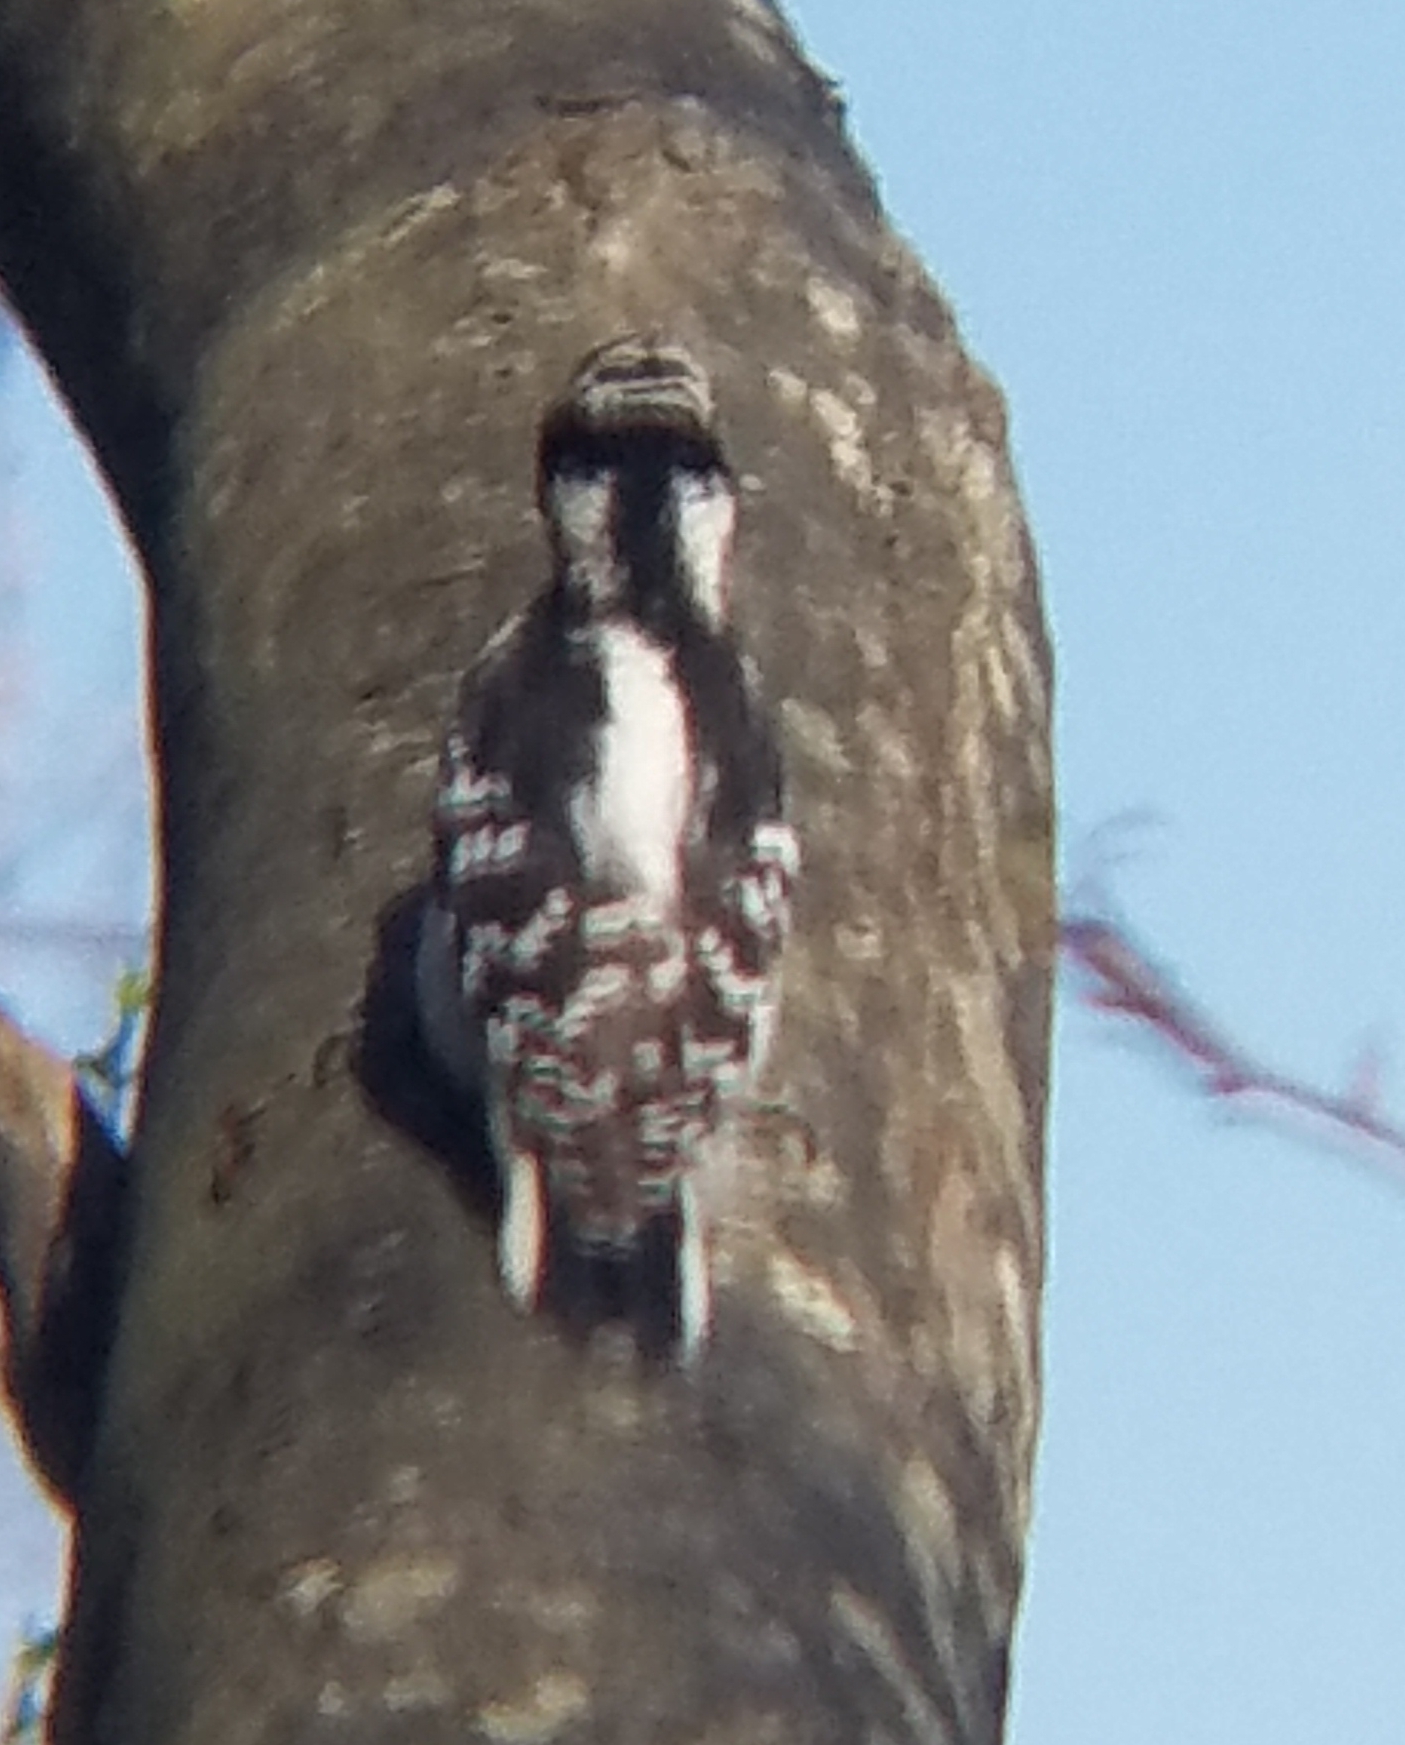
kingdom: Animalia
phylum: Chordata
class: Aves
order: Piciformes
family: Picidae
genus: Leuconotopicus
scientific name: Leuconotopicus villosus
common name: Hairy woodpecker
